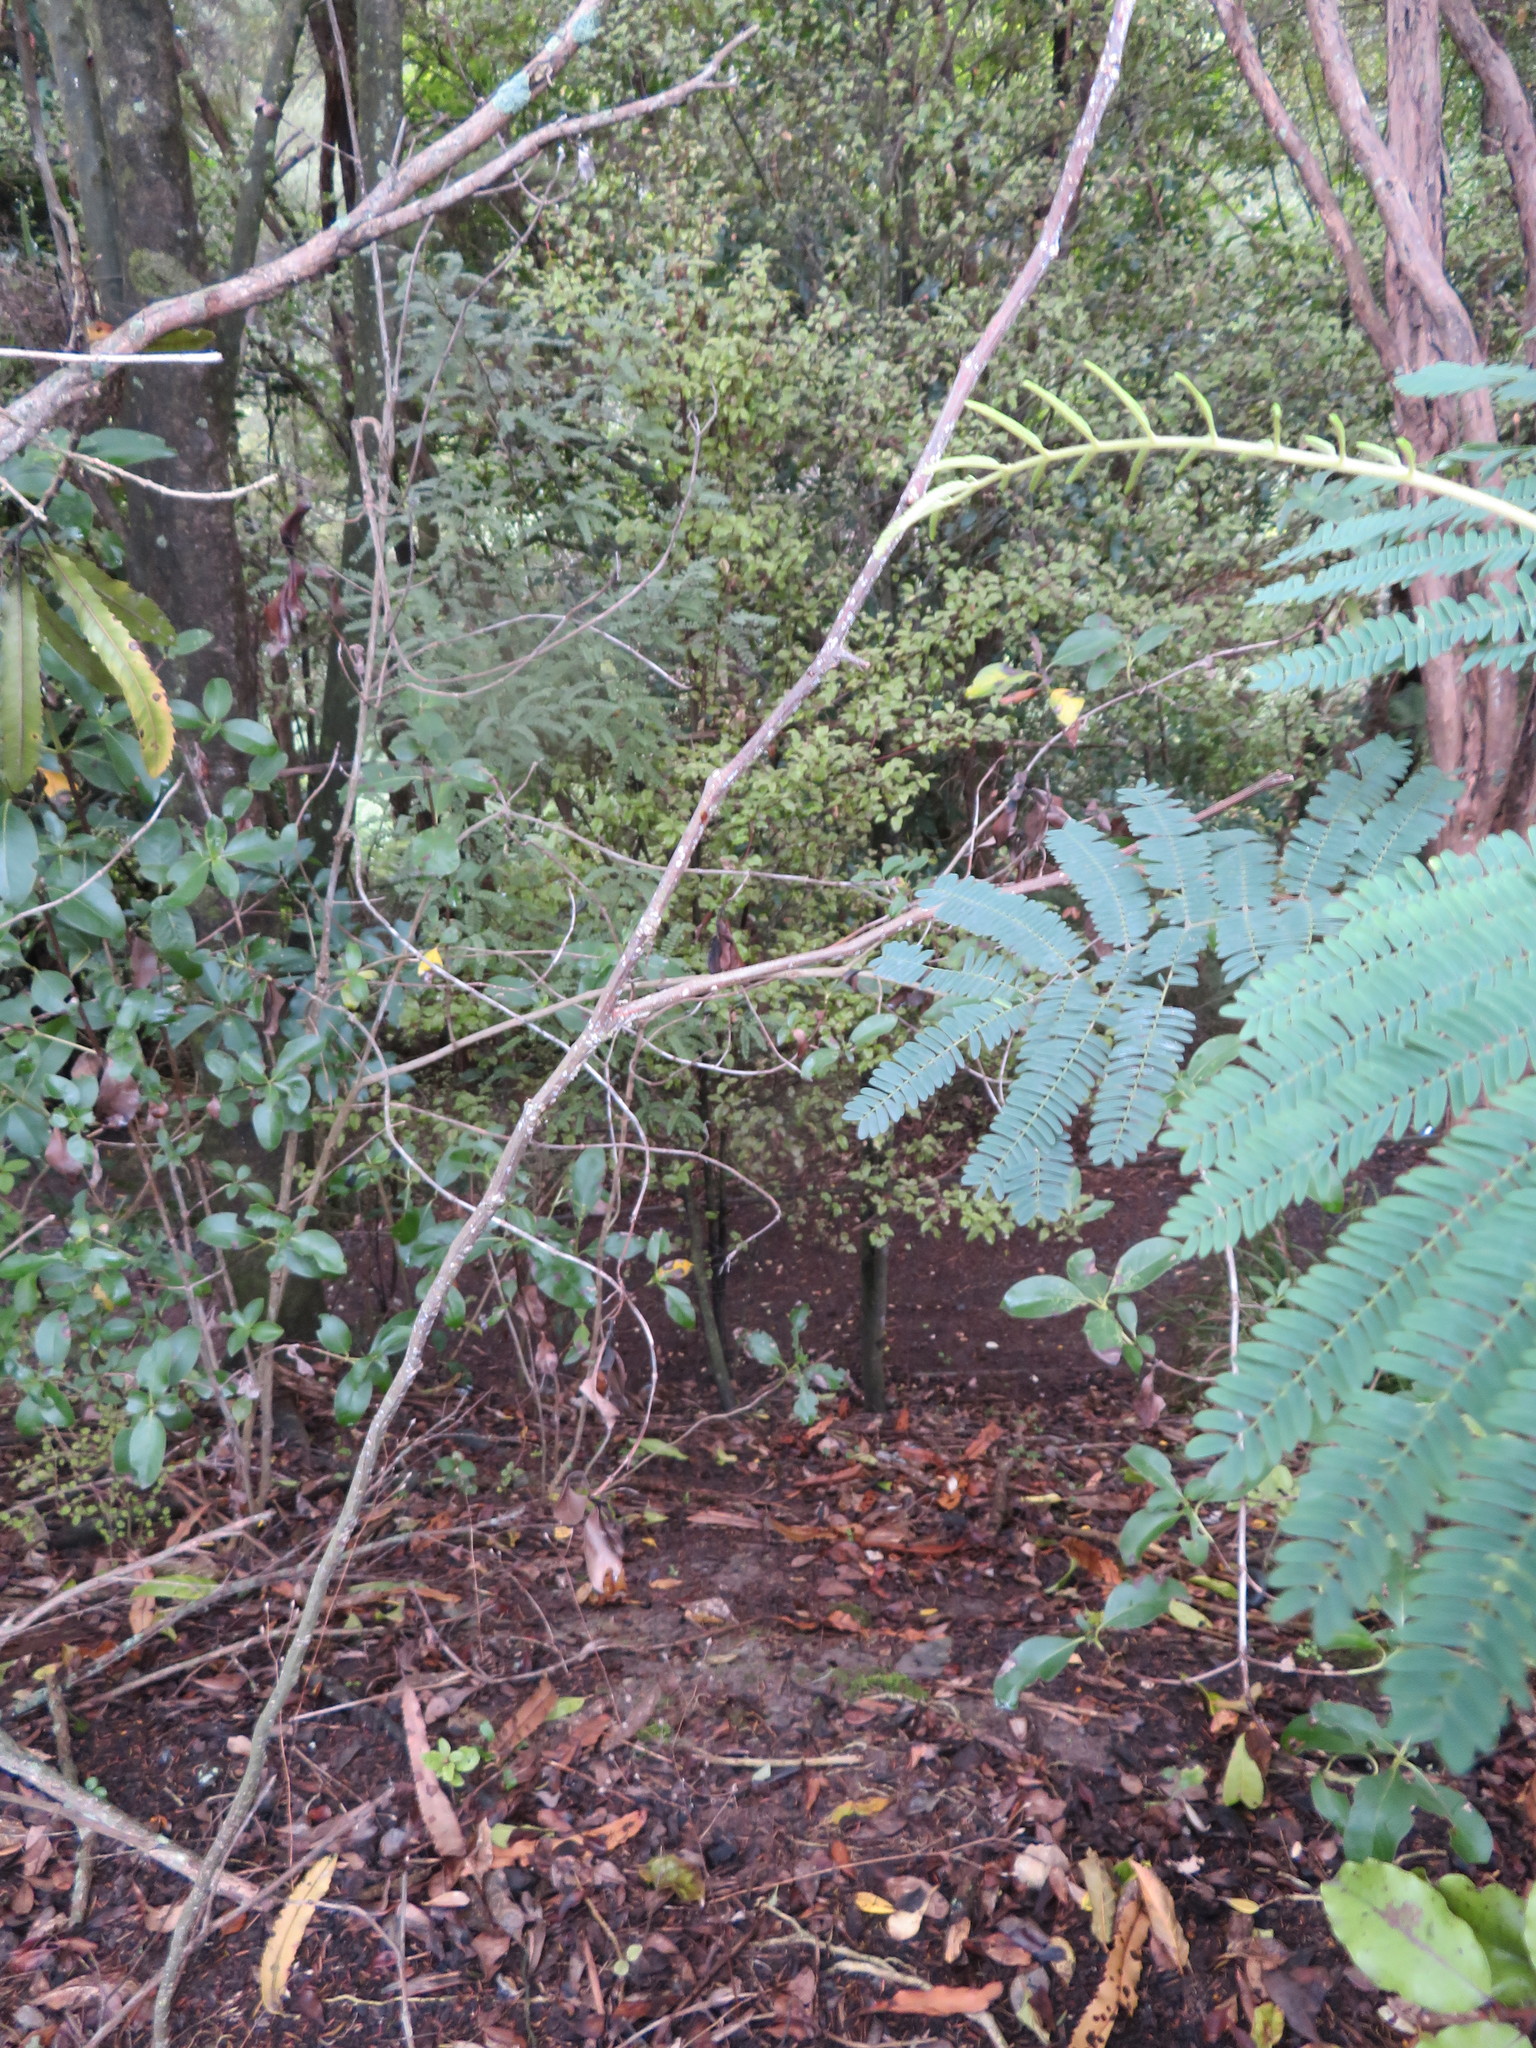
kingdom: Plantae
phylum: Tracheophyta
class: Magnoliopsida
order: Fabales
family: Fabaceae
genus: Paraserianthes
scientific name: Paraserianthes lophantha
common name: Plume albizia
